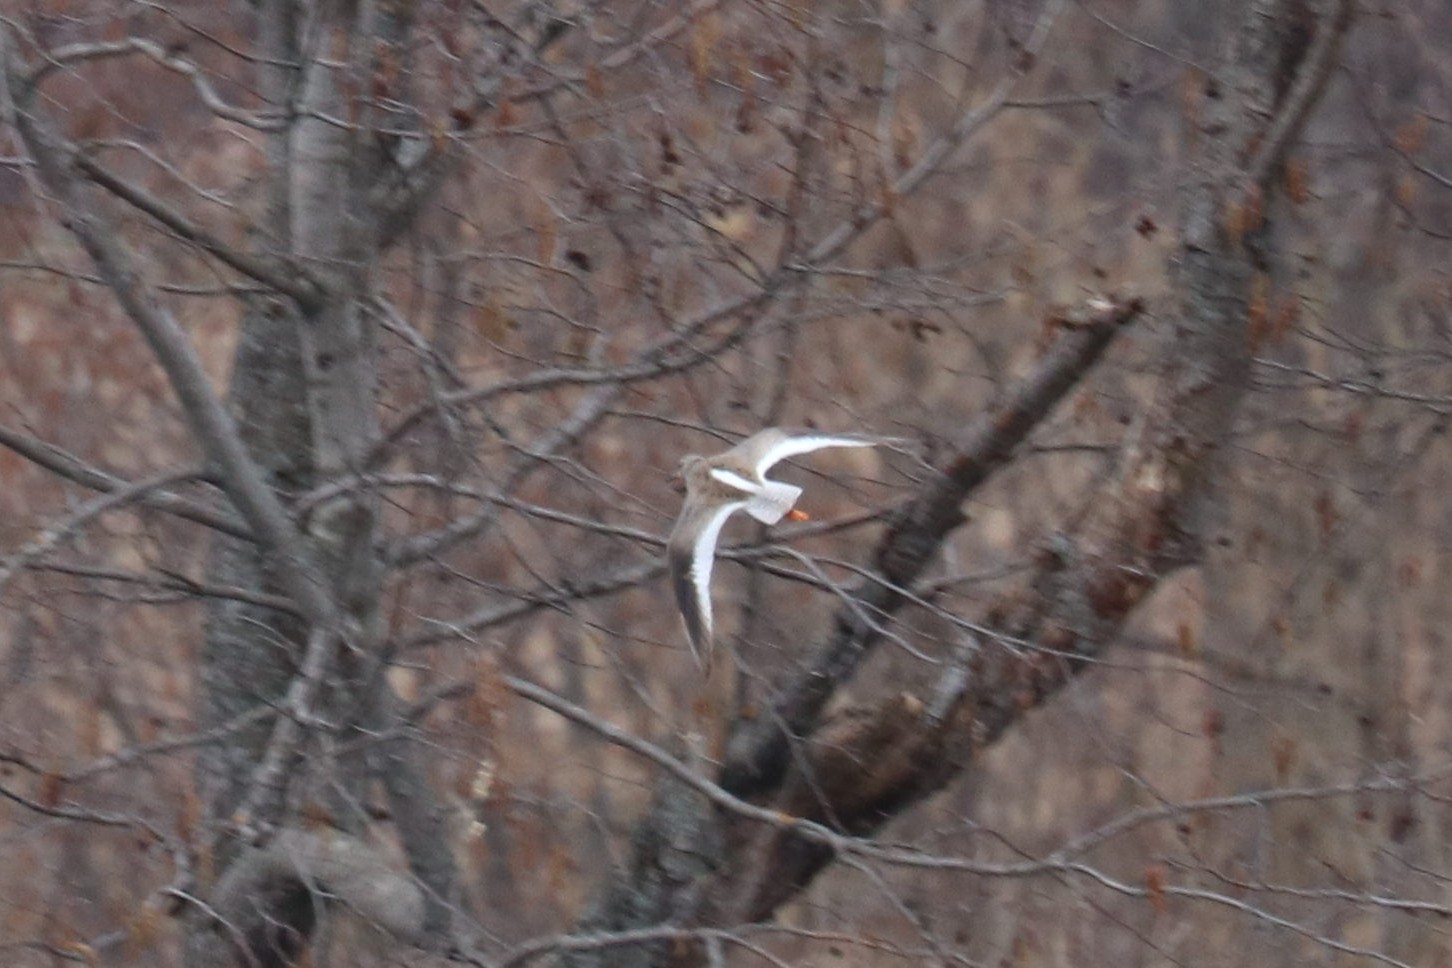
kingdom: Animalia
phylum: Chordata
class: Aves
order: Charadriiformes
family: Scolopacidae
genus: Tringa
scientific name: Tringa totanus
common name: Common redshank
